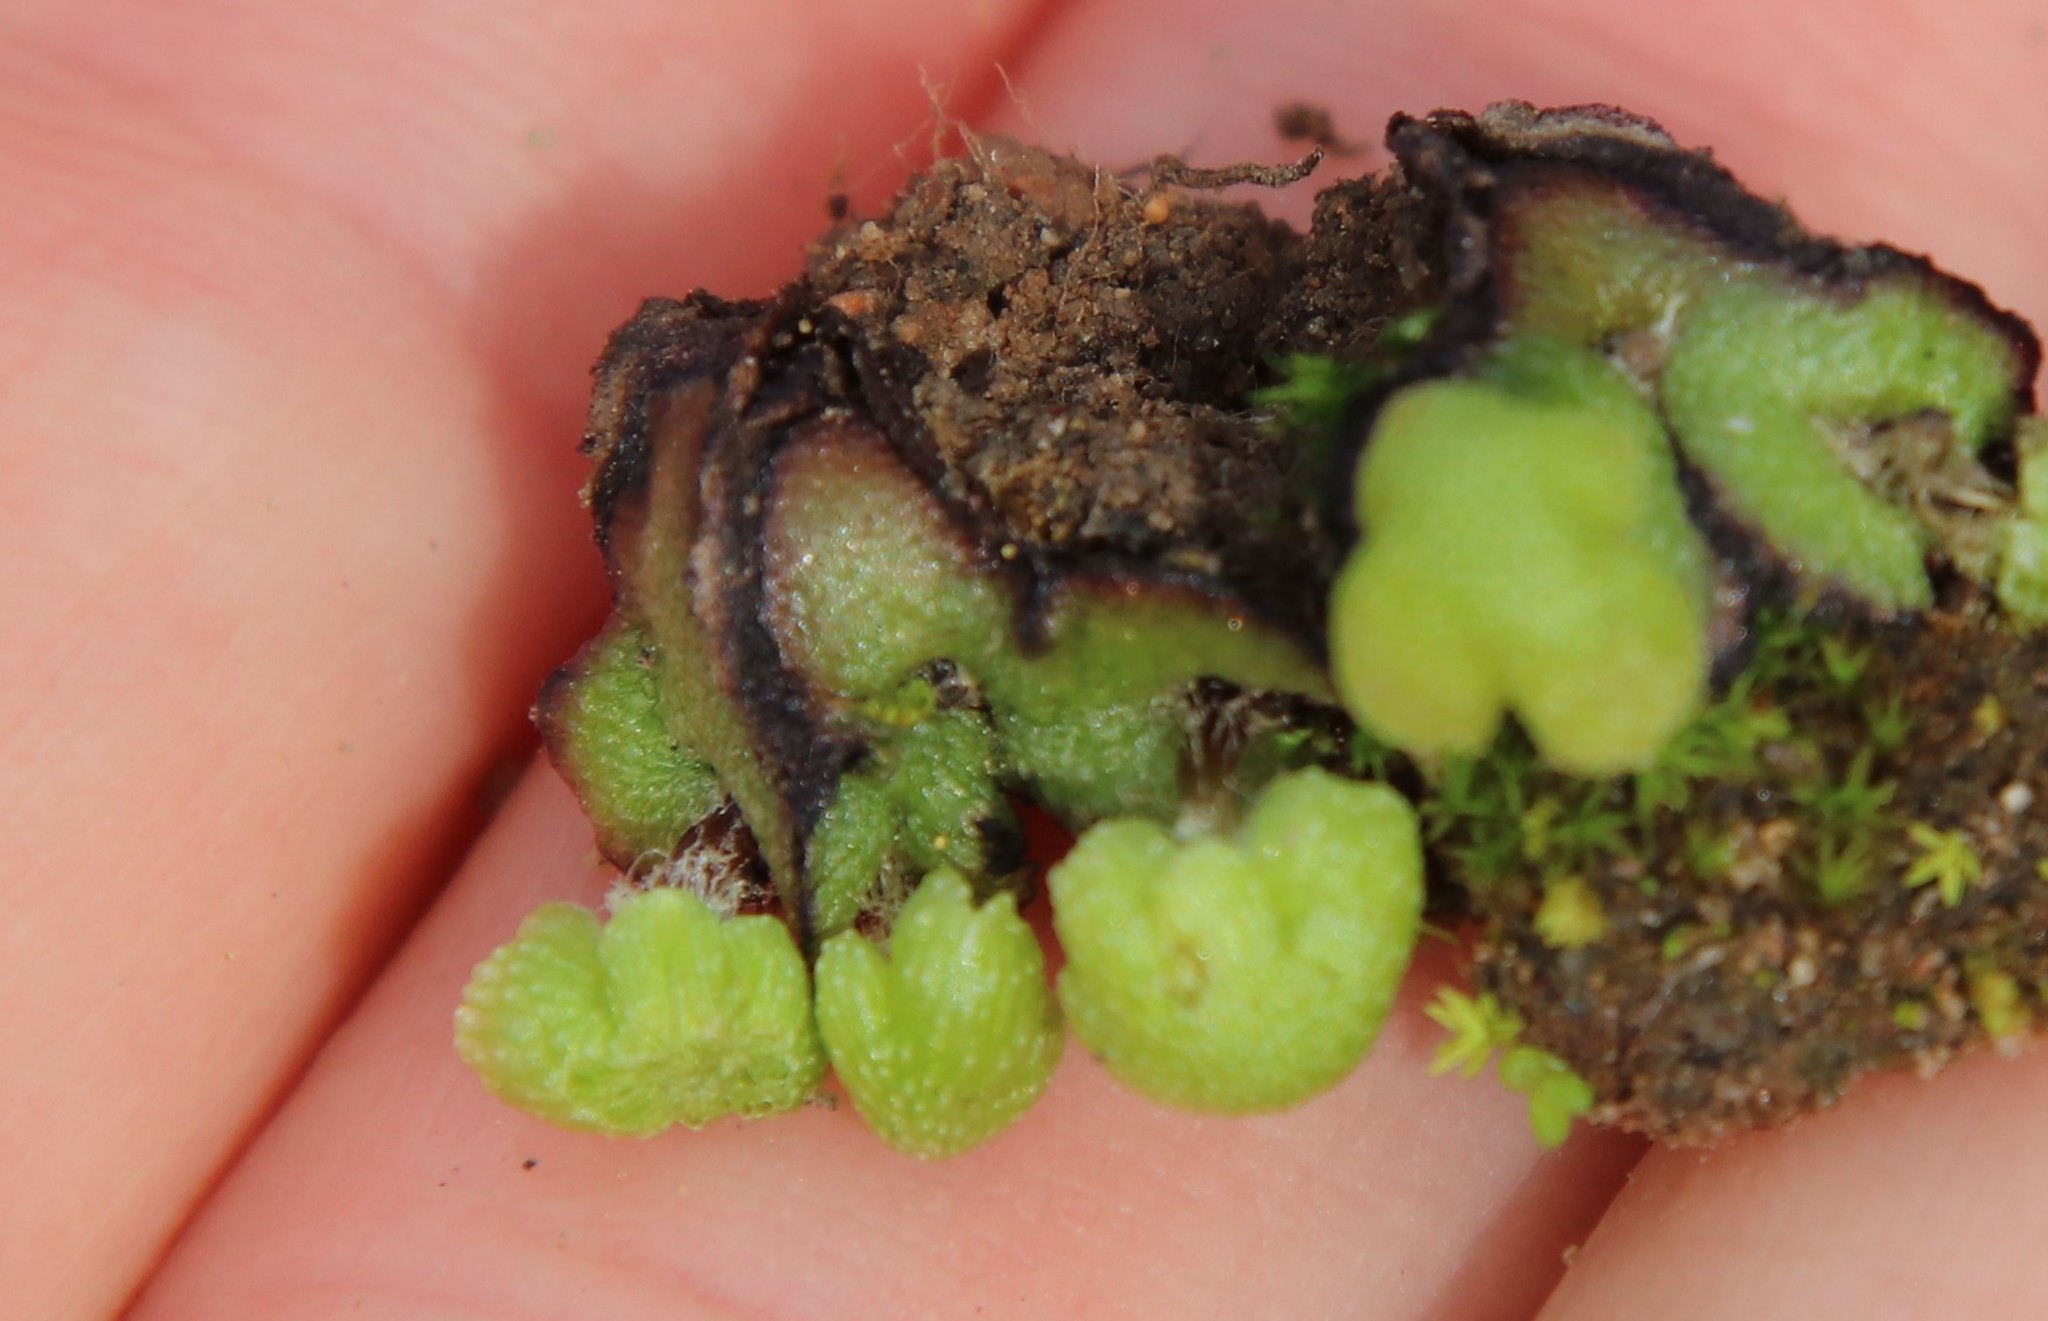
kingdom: Plantae
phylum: Marchantiophyta
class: Marchantiopsida
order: Marchantiales
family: Aytoniaceae
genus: Asterella
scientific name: Asterella californica
